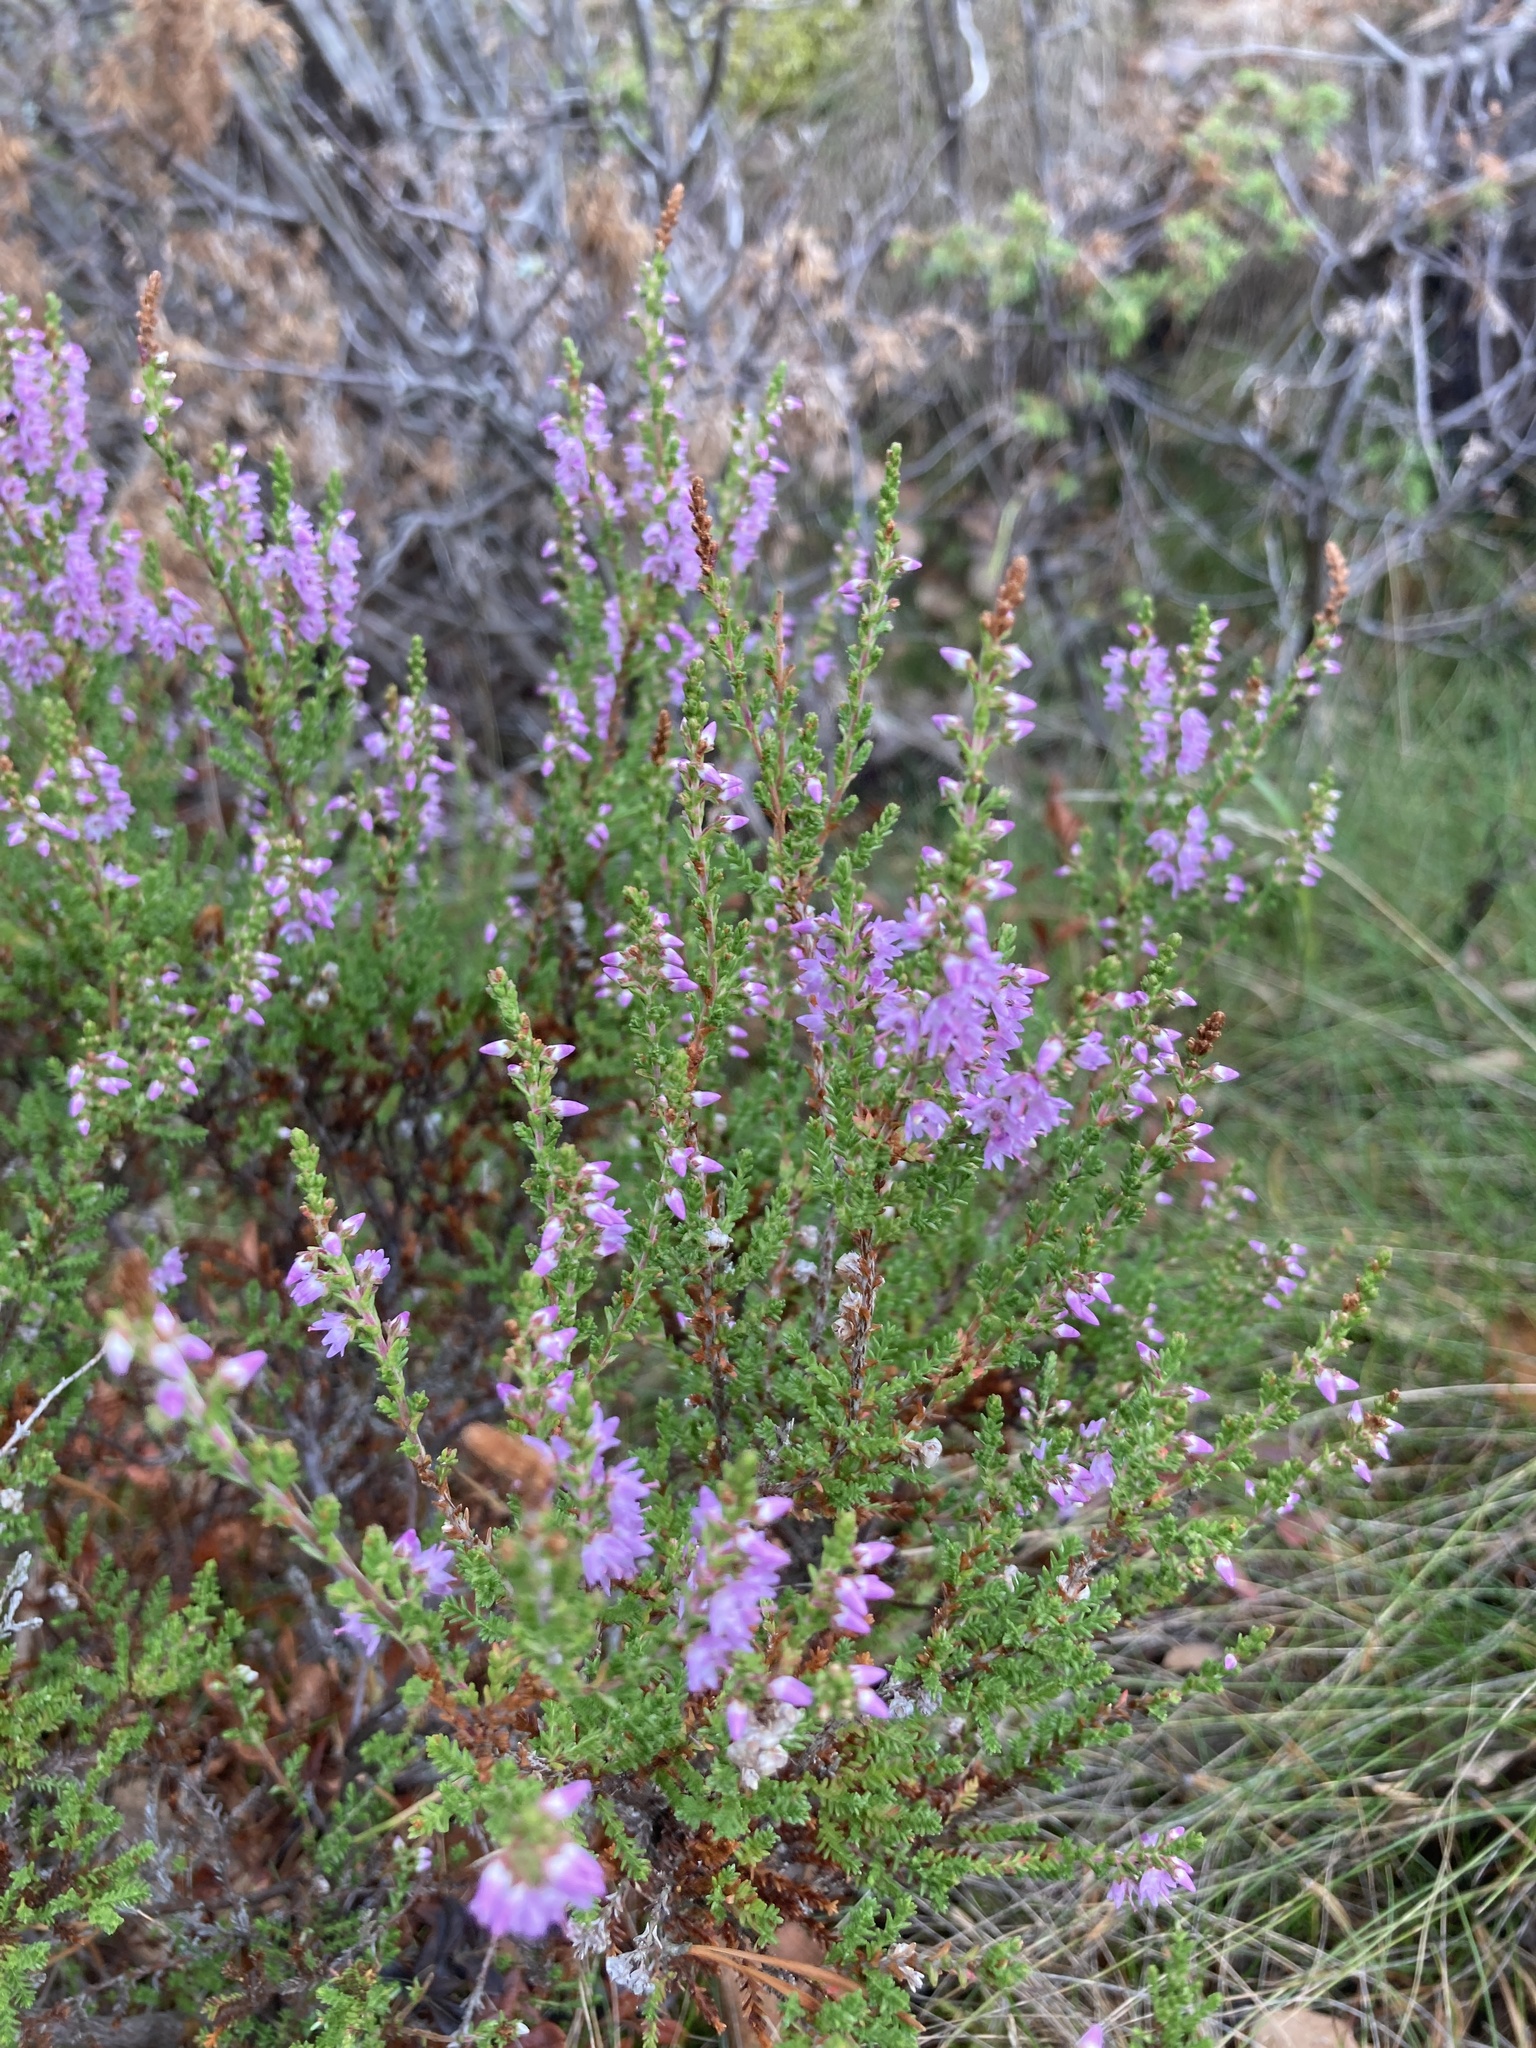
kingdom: Plantae
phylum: Tracheophyta
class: Magnoliopsida
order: Ericales
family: Ericaceae
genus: Calluna
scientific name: Calluna vulgaris
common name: Heather
